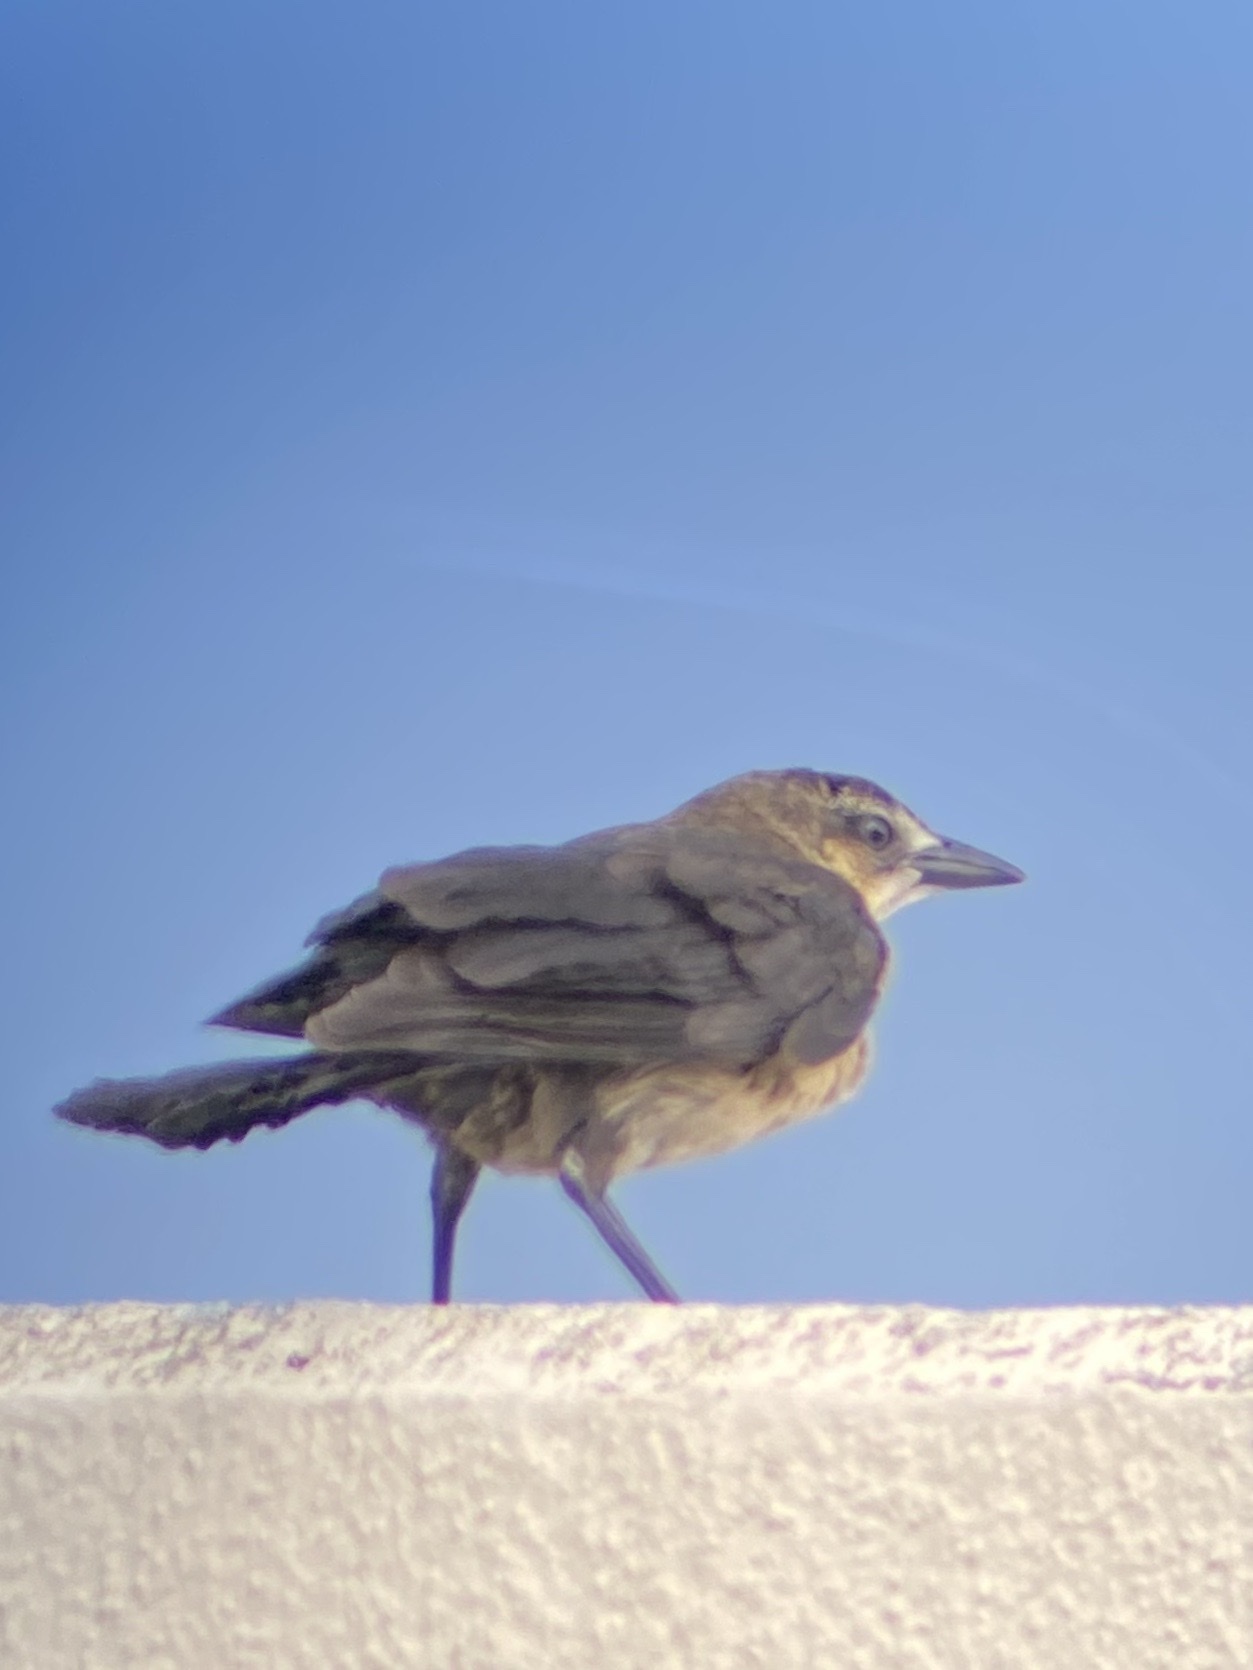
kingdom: Animalia
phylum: Chordata
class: Aves
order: Passeriformes
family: Icteridae
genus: Quiscalus
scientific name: Quiscalus mexicanus
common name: Great-tailed grackle
